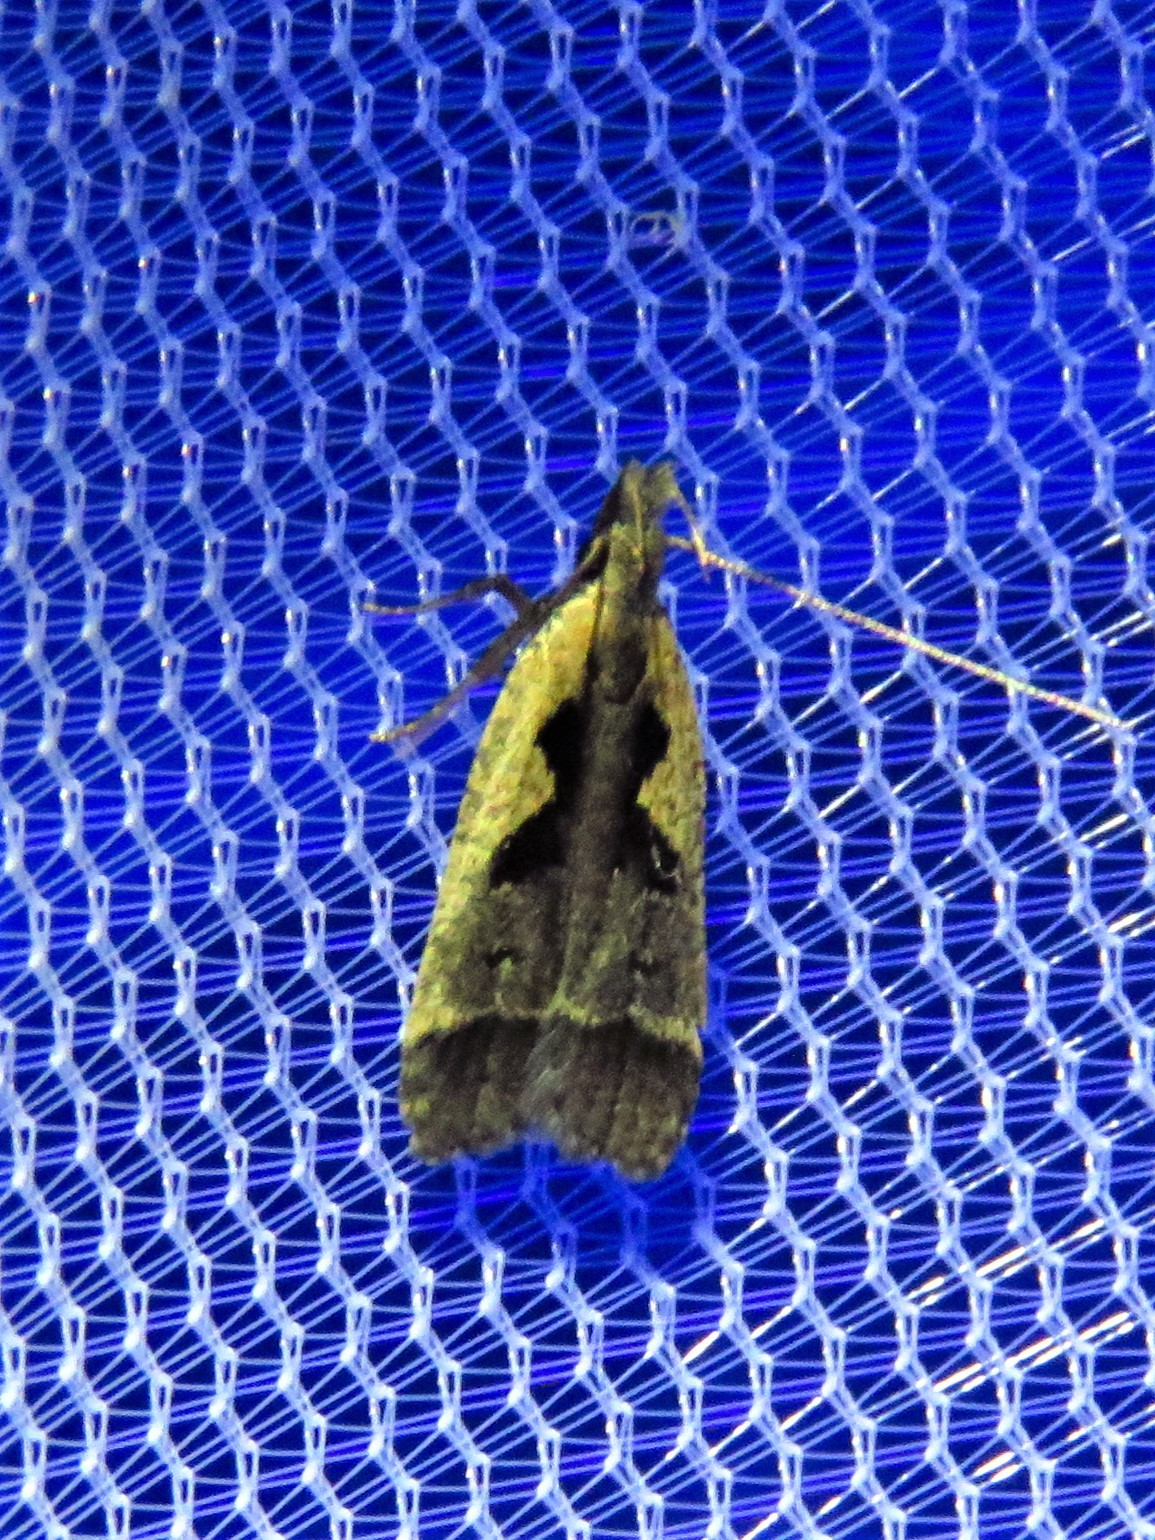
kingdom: Animalia
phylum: Arthropoda
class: Insecta
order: Lepidoptera
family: Gelechiidae
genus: Dichomeris
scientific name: Dichomeris setosella
